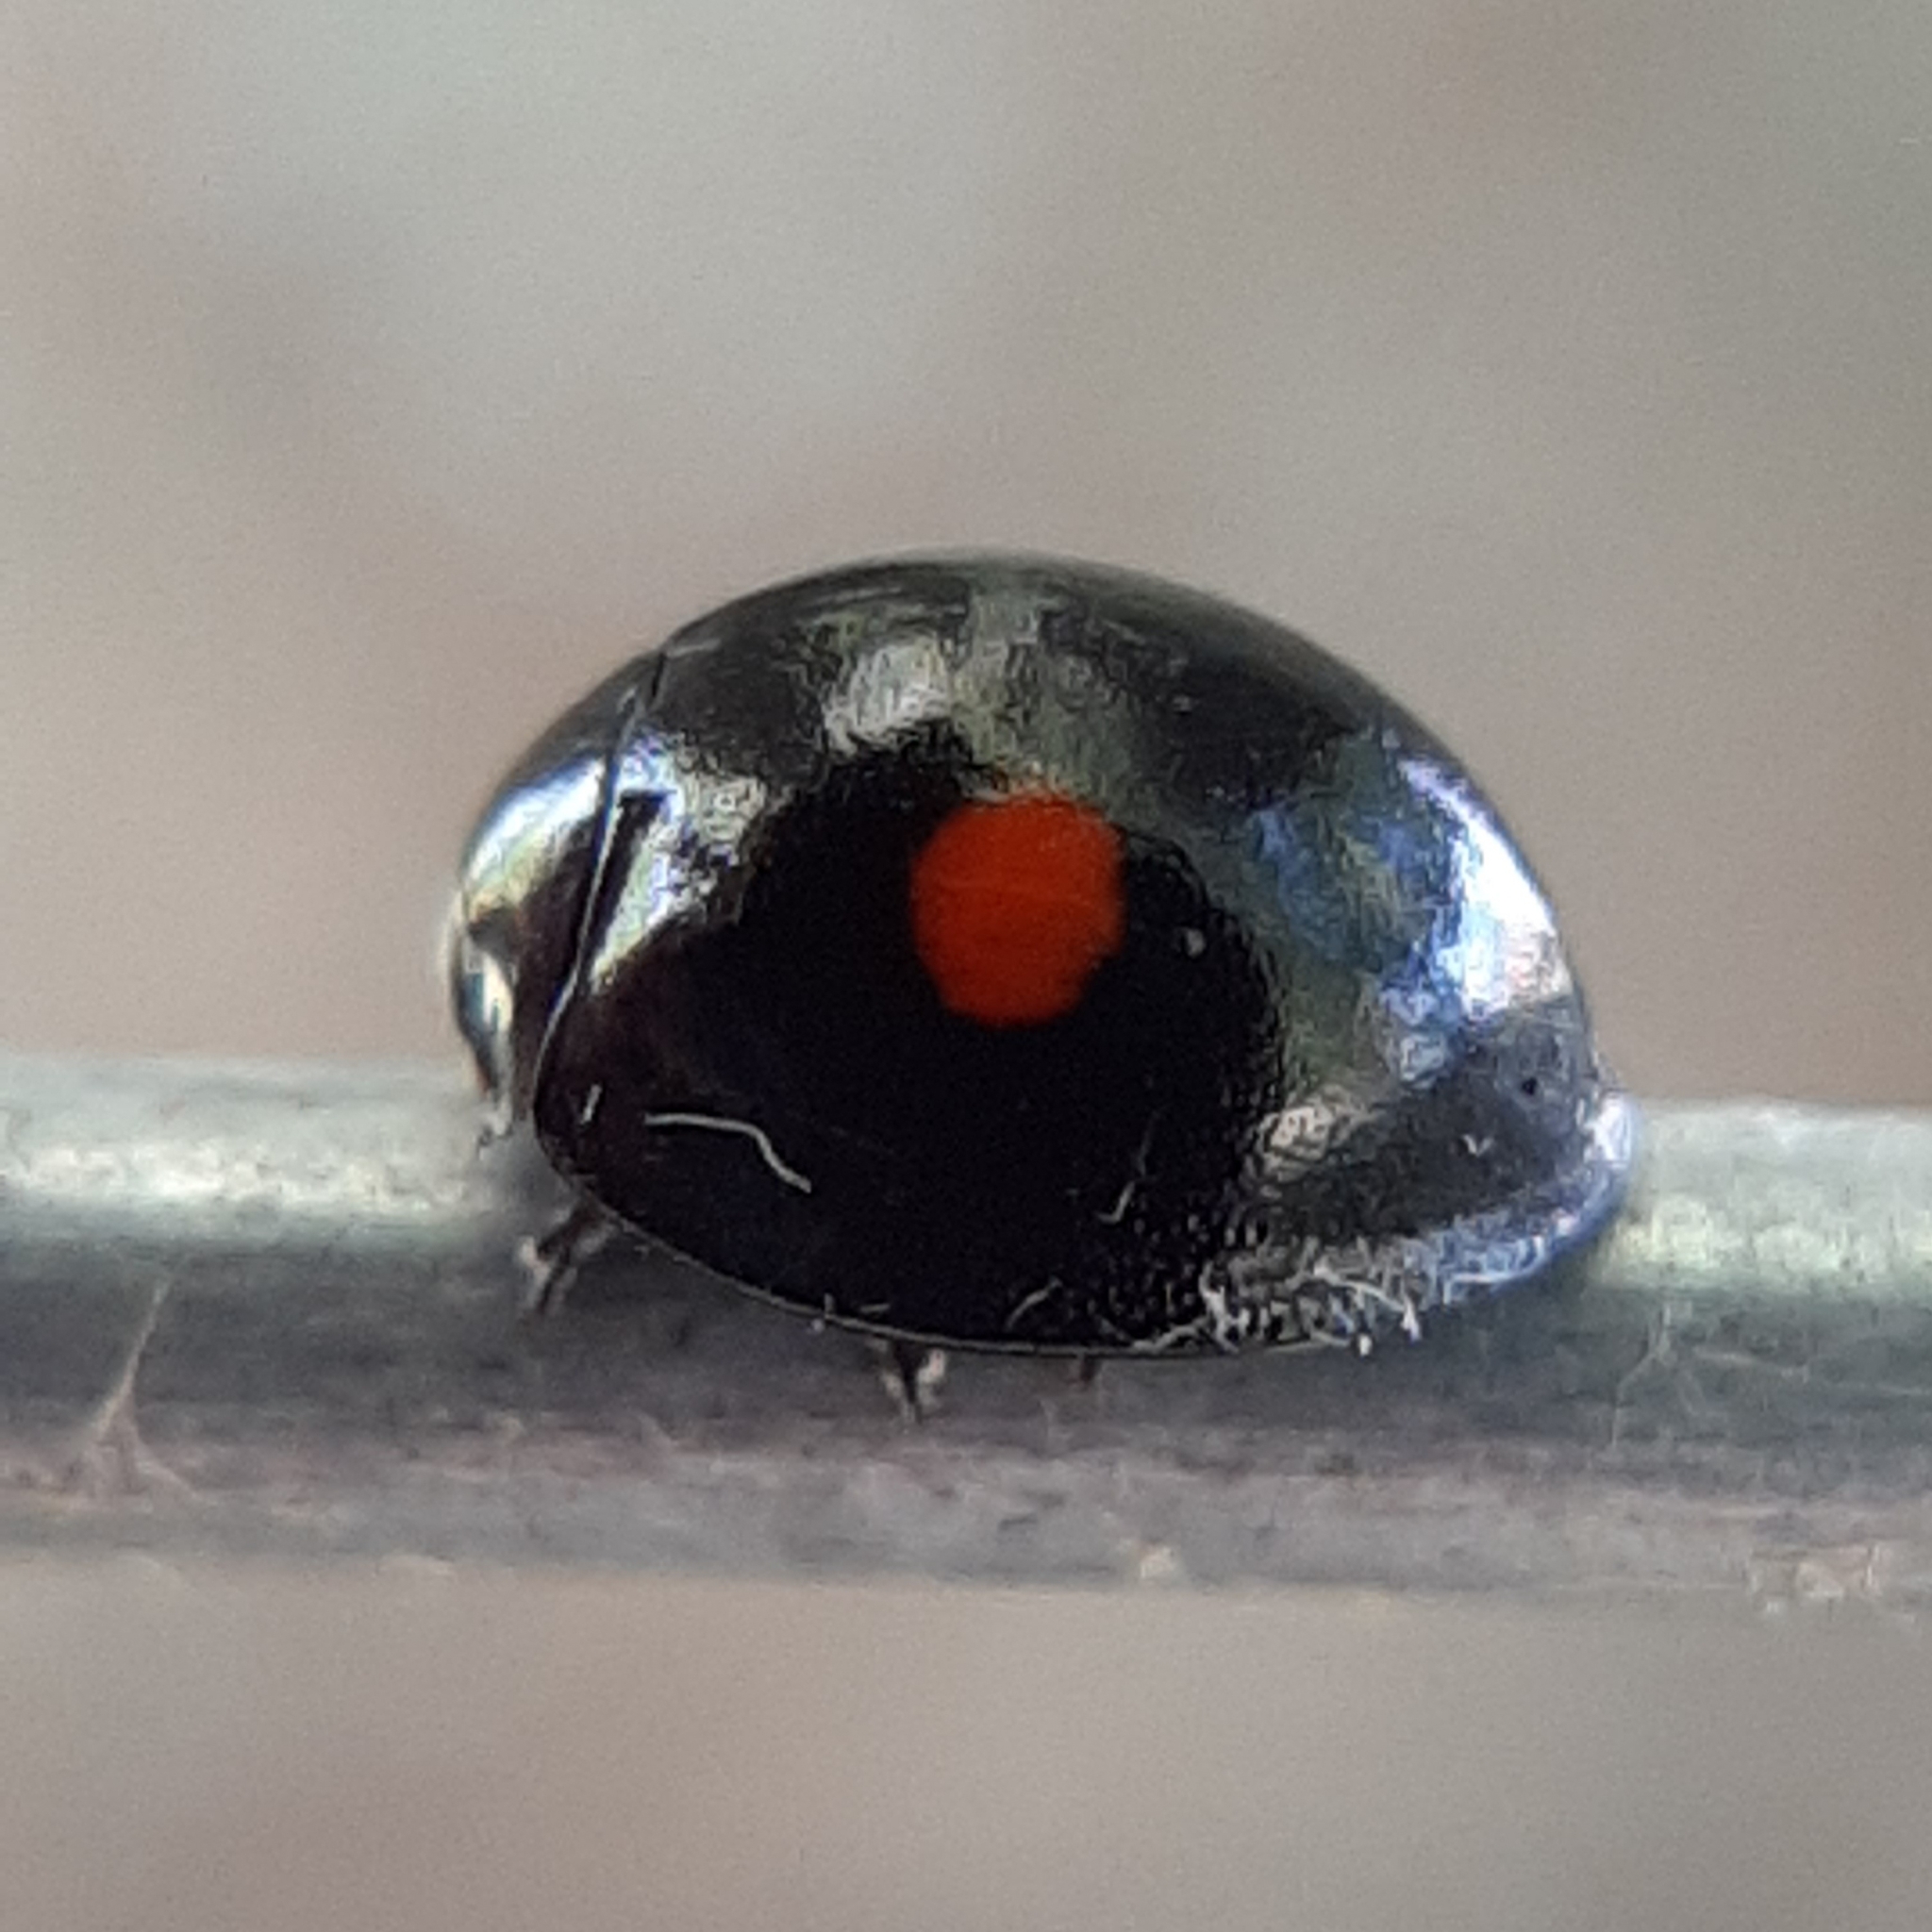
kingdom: Animalia
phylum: Arthropoda
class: Insecta
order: Coleoptera
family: Coccinellidae
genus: Chilocorus
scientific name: Chilocorus stigma
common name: Twicestabbed lady beetle
